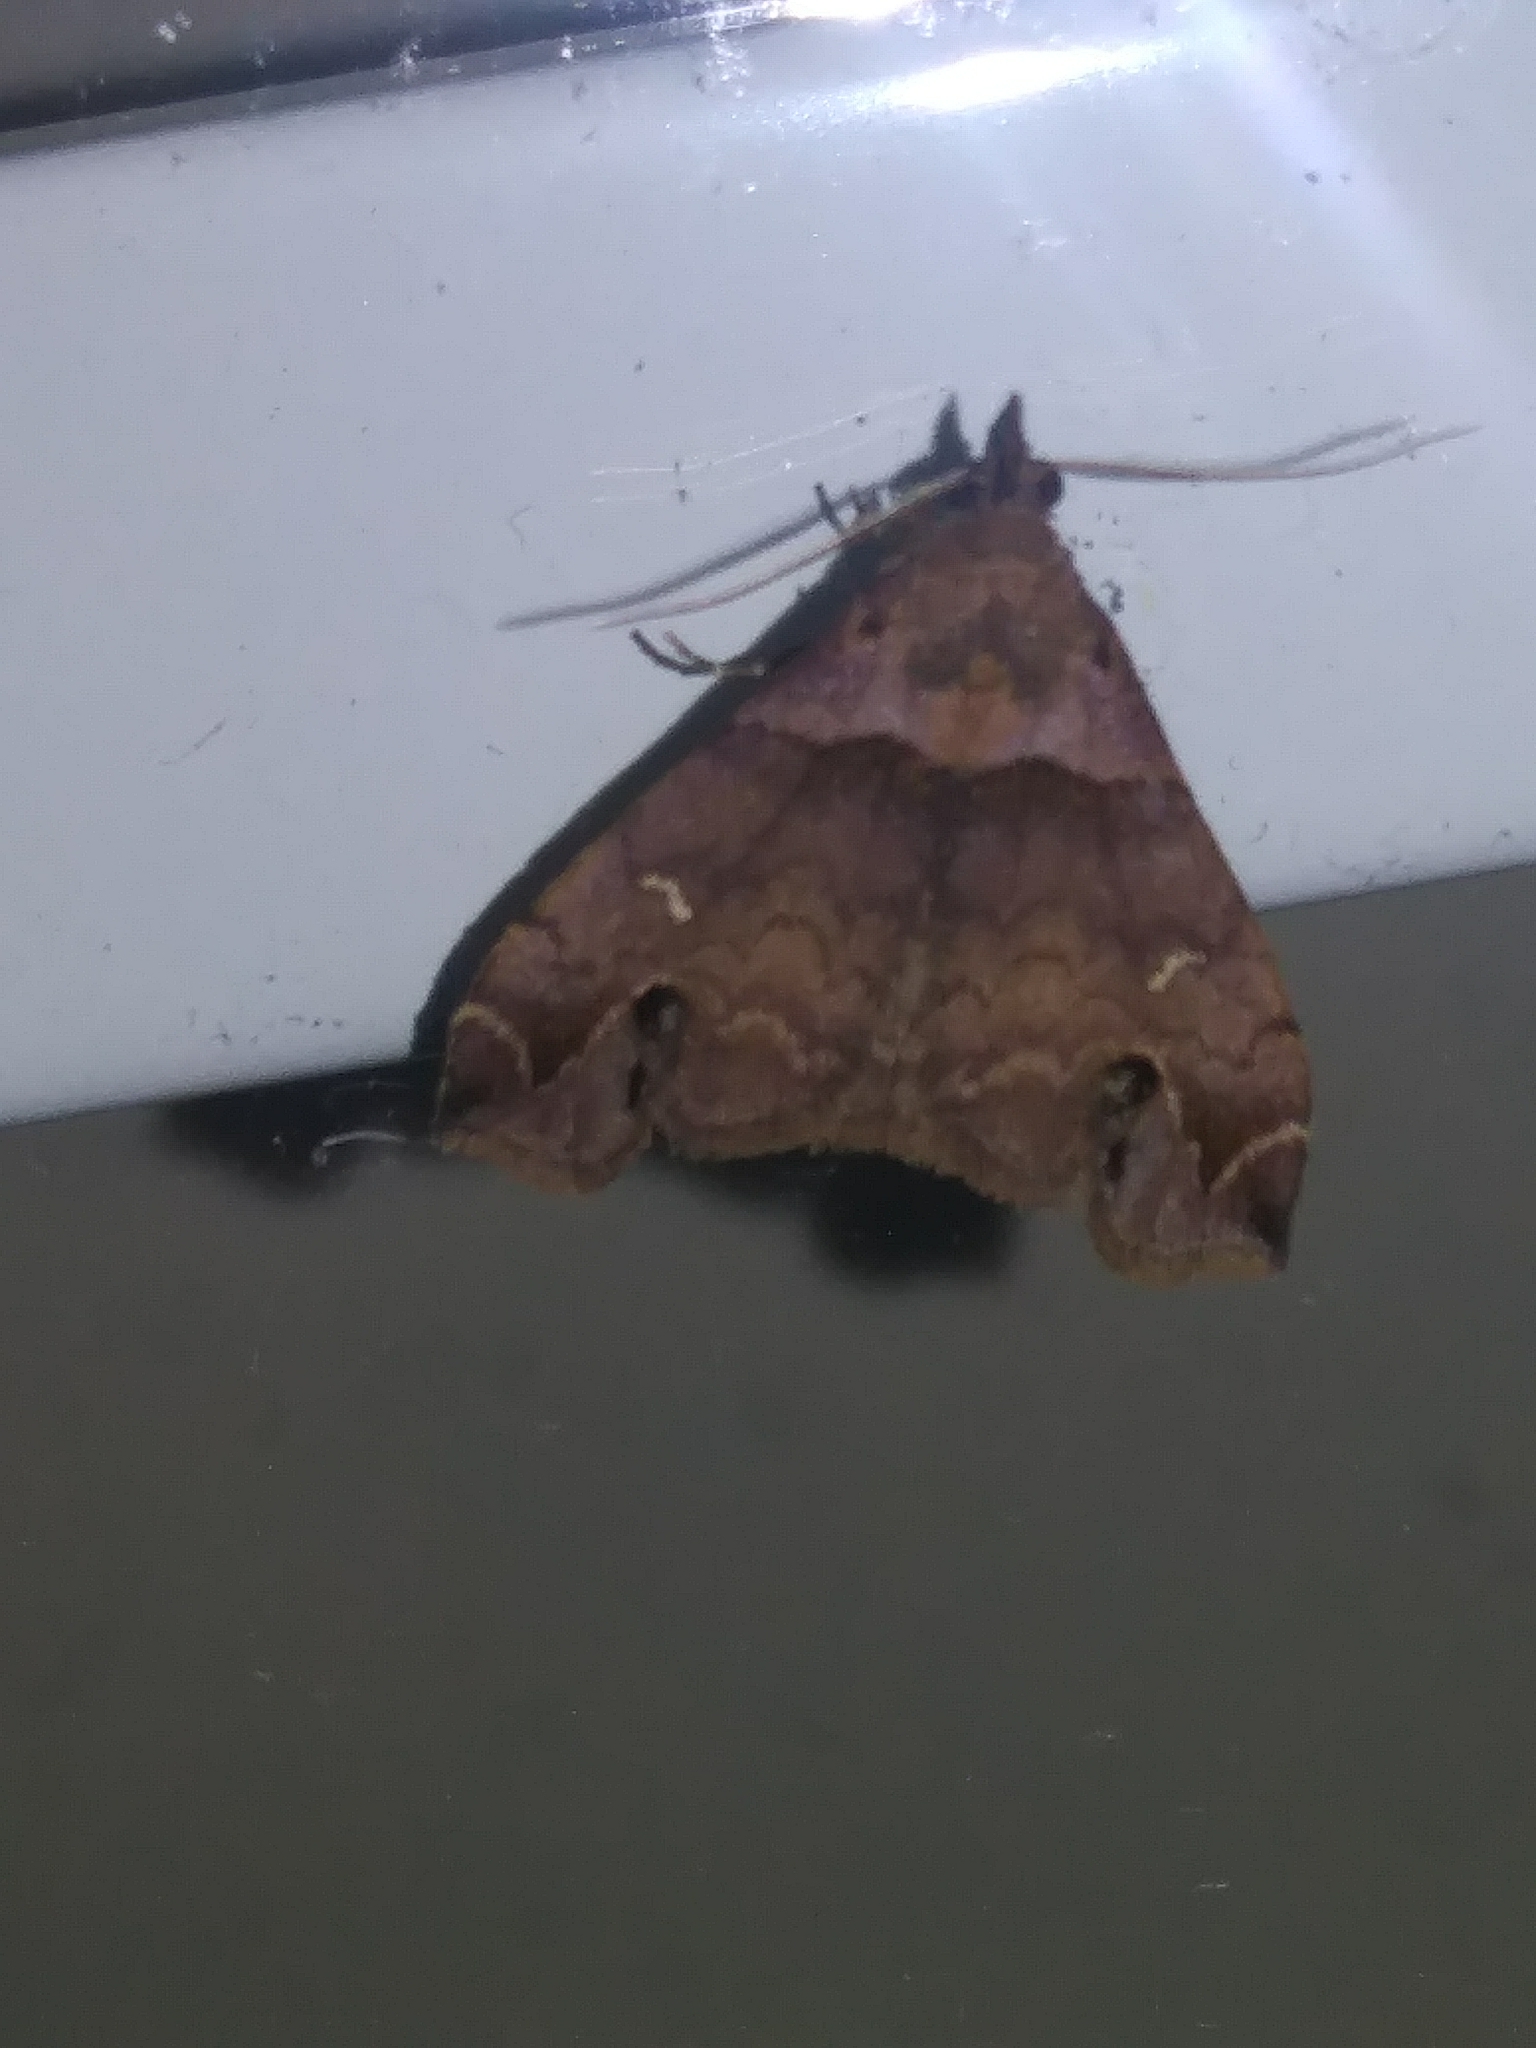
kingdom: Animalia
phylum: Arthropoda
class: Insecta
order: Lepidoptera
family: Erebidae
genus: Lascoria
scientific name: Lascoria ambigualis
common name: Ambiguous moth
